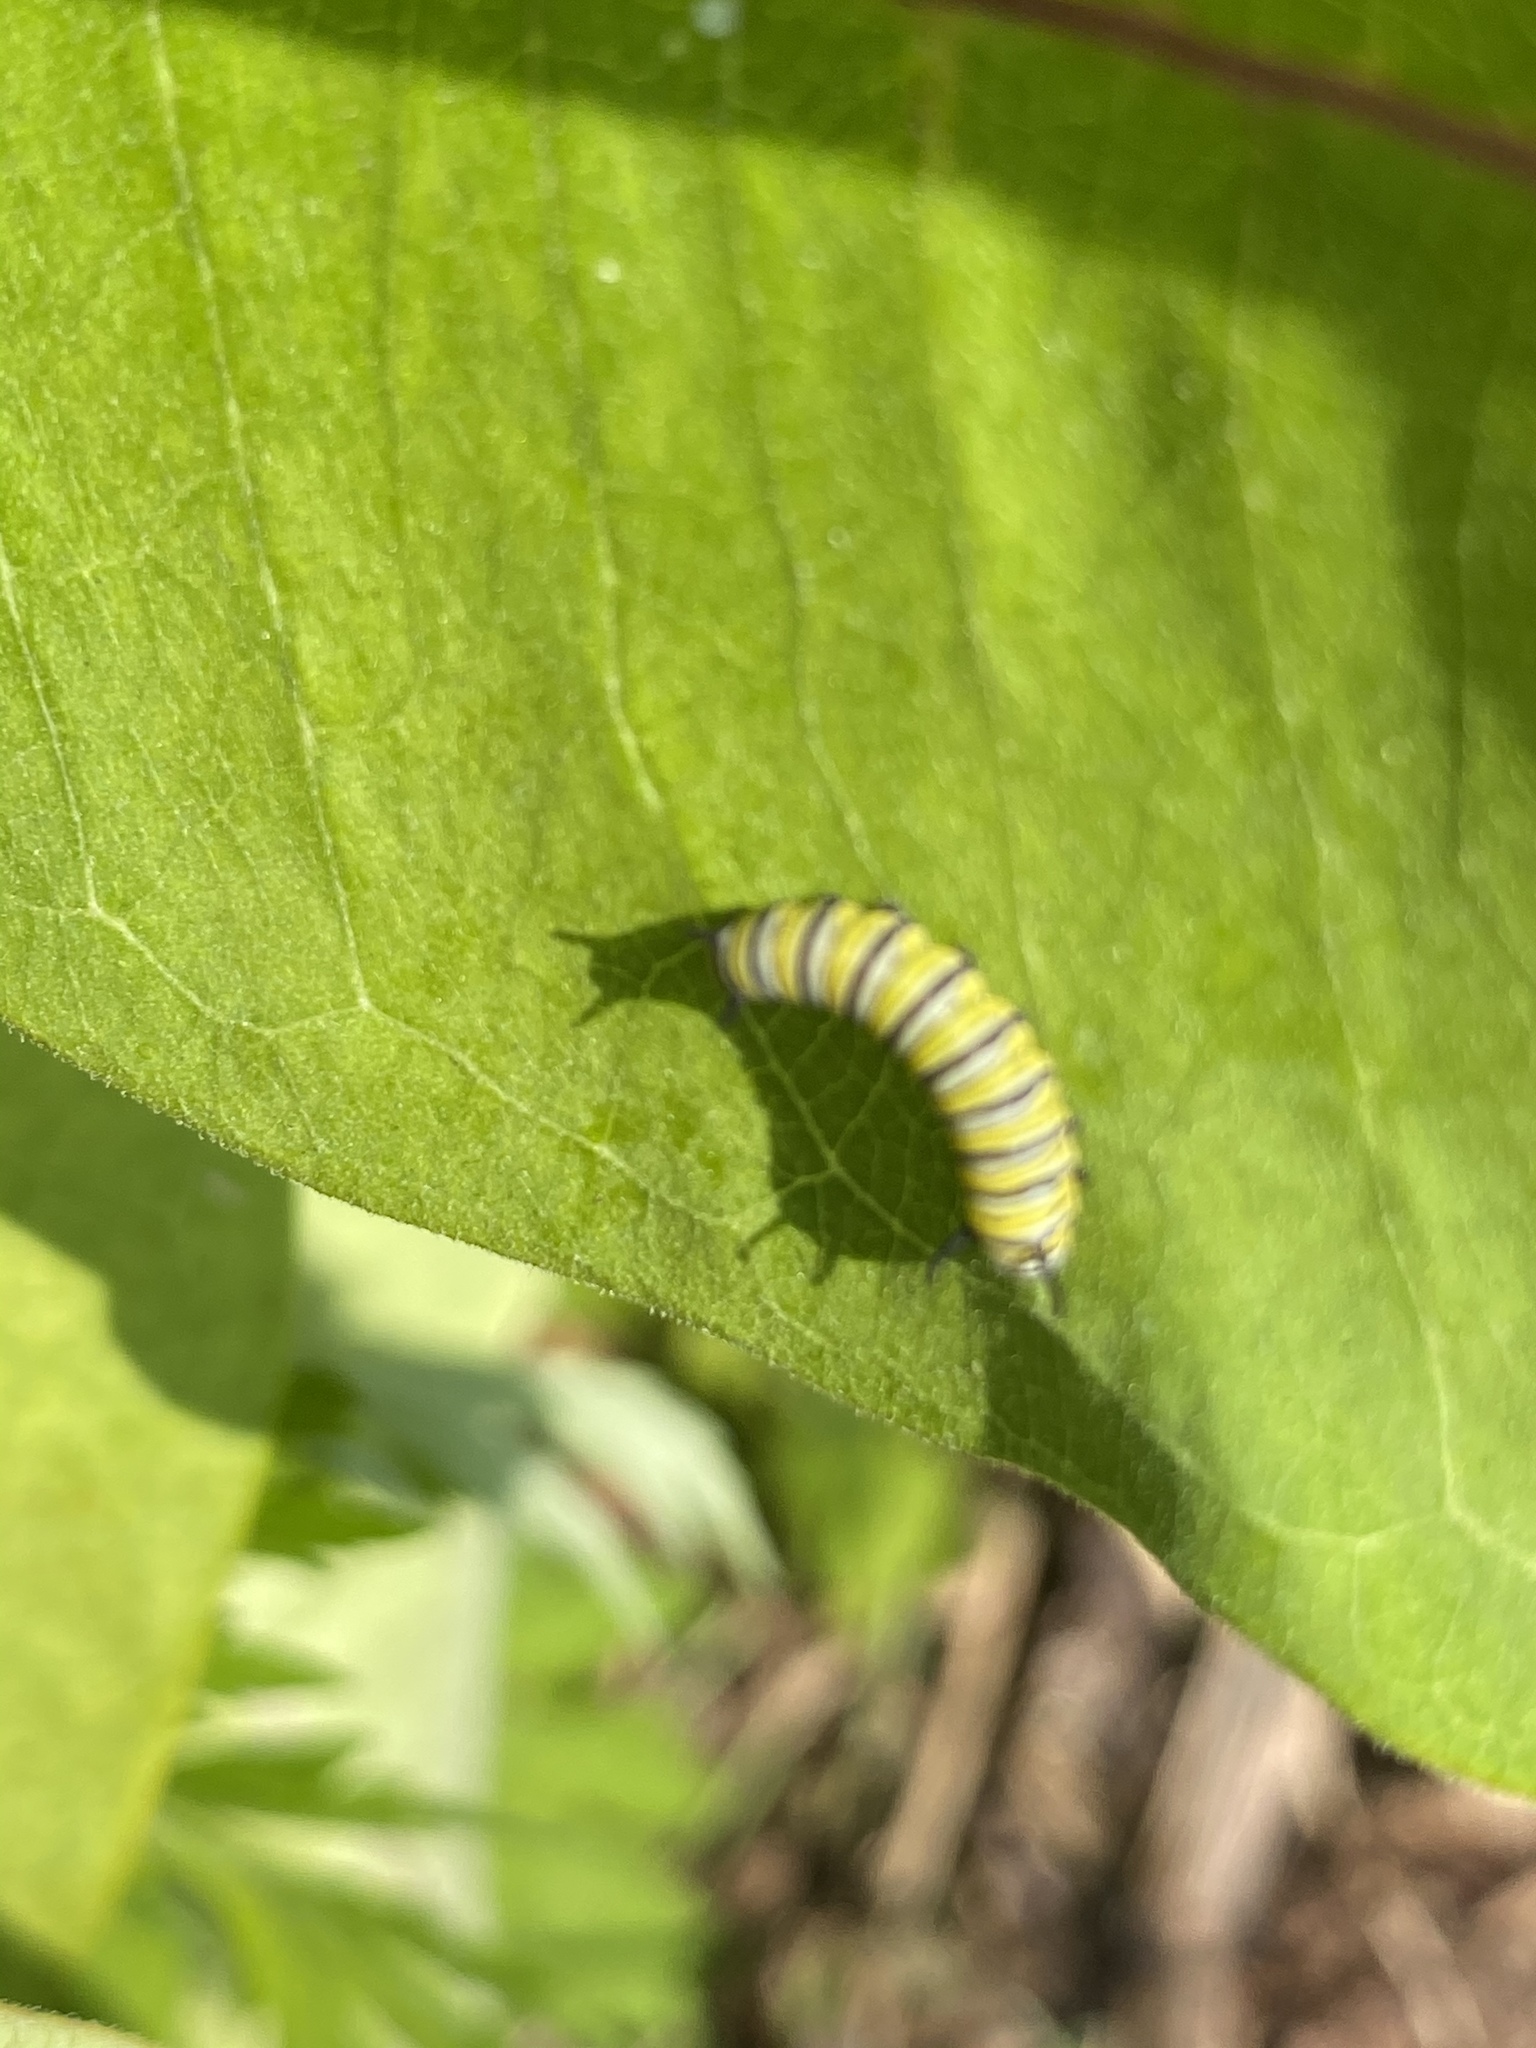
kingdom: Animalia
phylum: Arthropoda
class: Insecta
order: Lepidoptera
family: Nymphalidae
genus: Danaus
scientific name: Danaus plexippus
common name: Monarch
